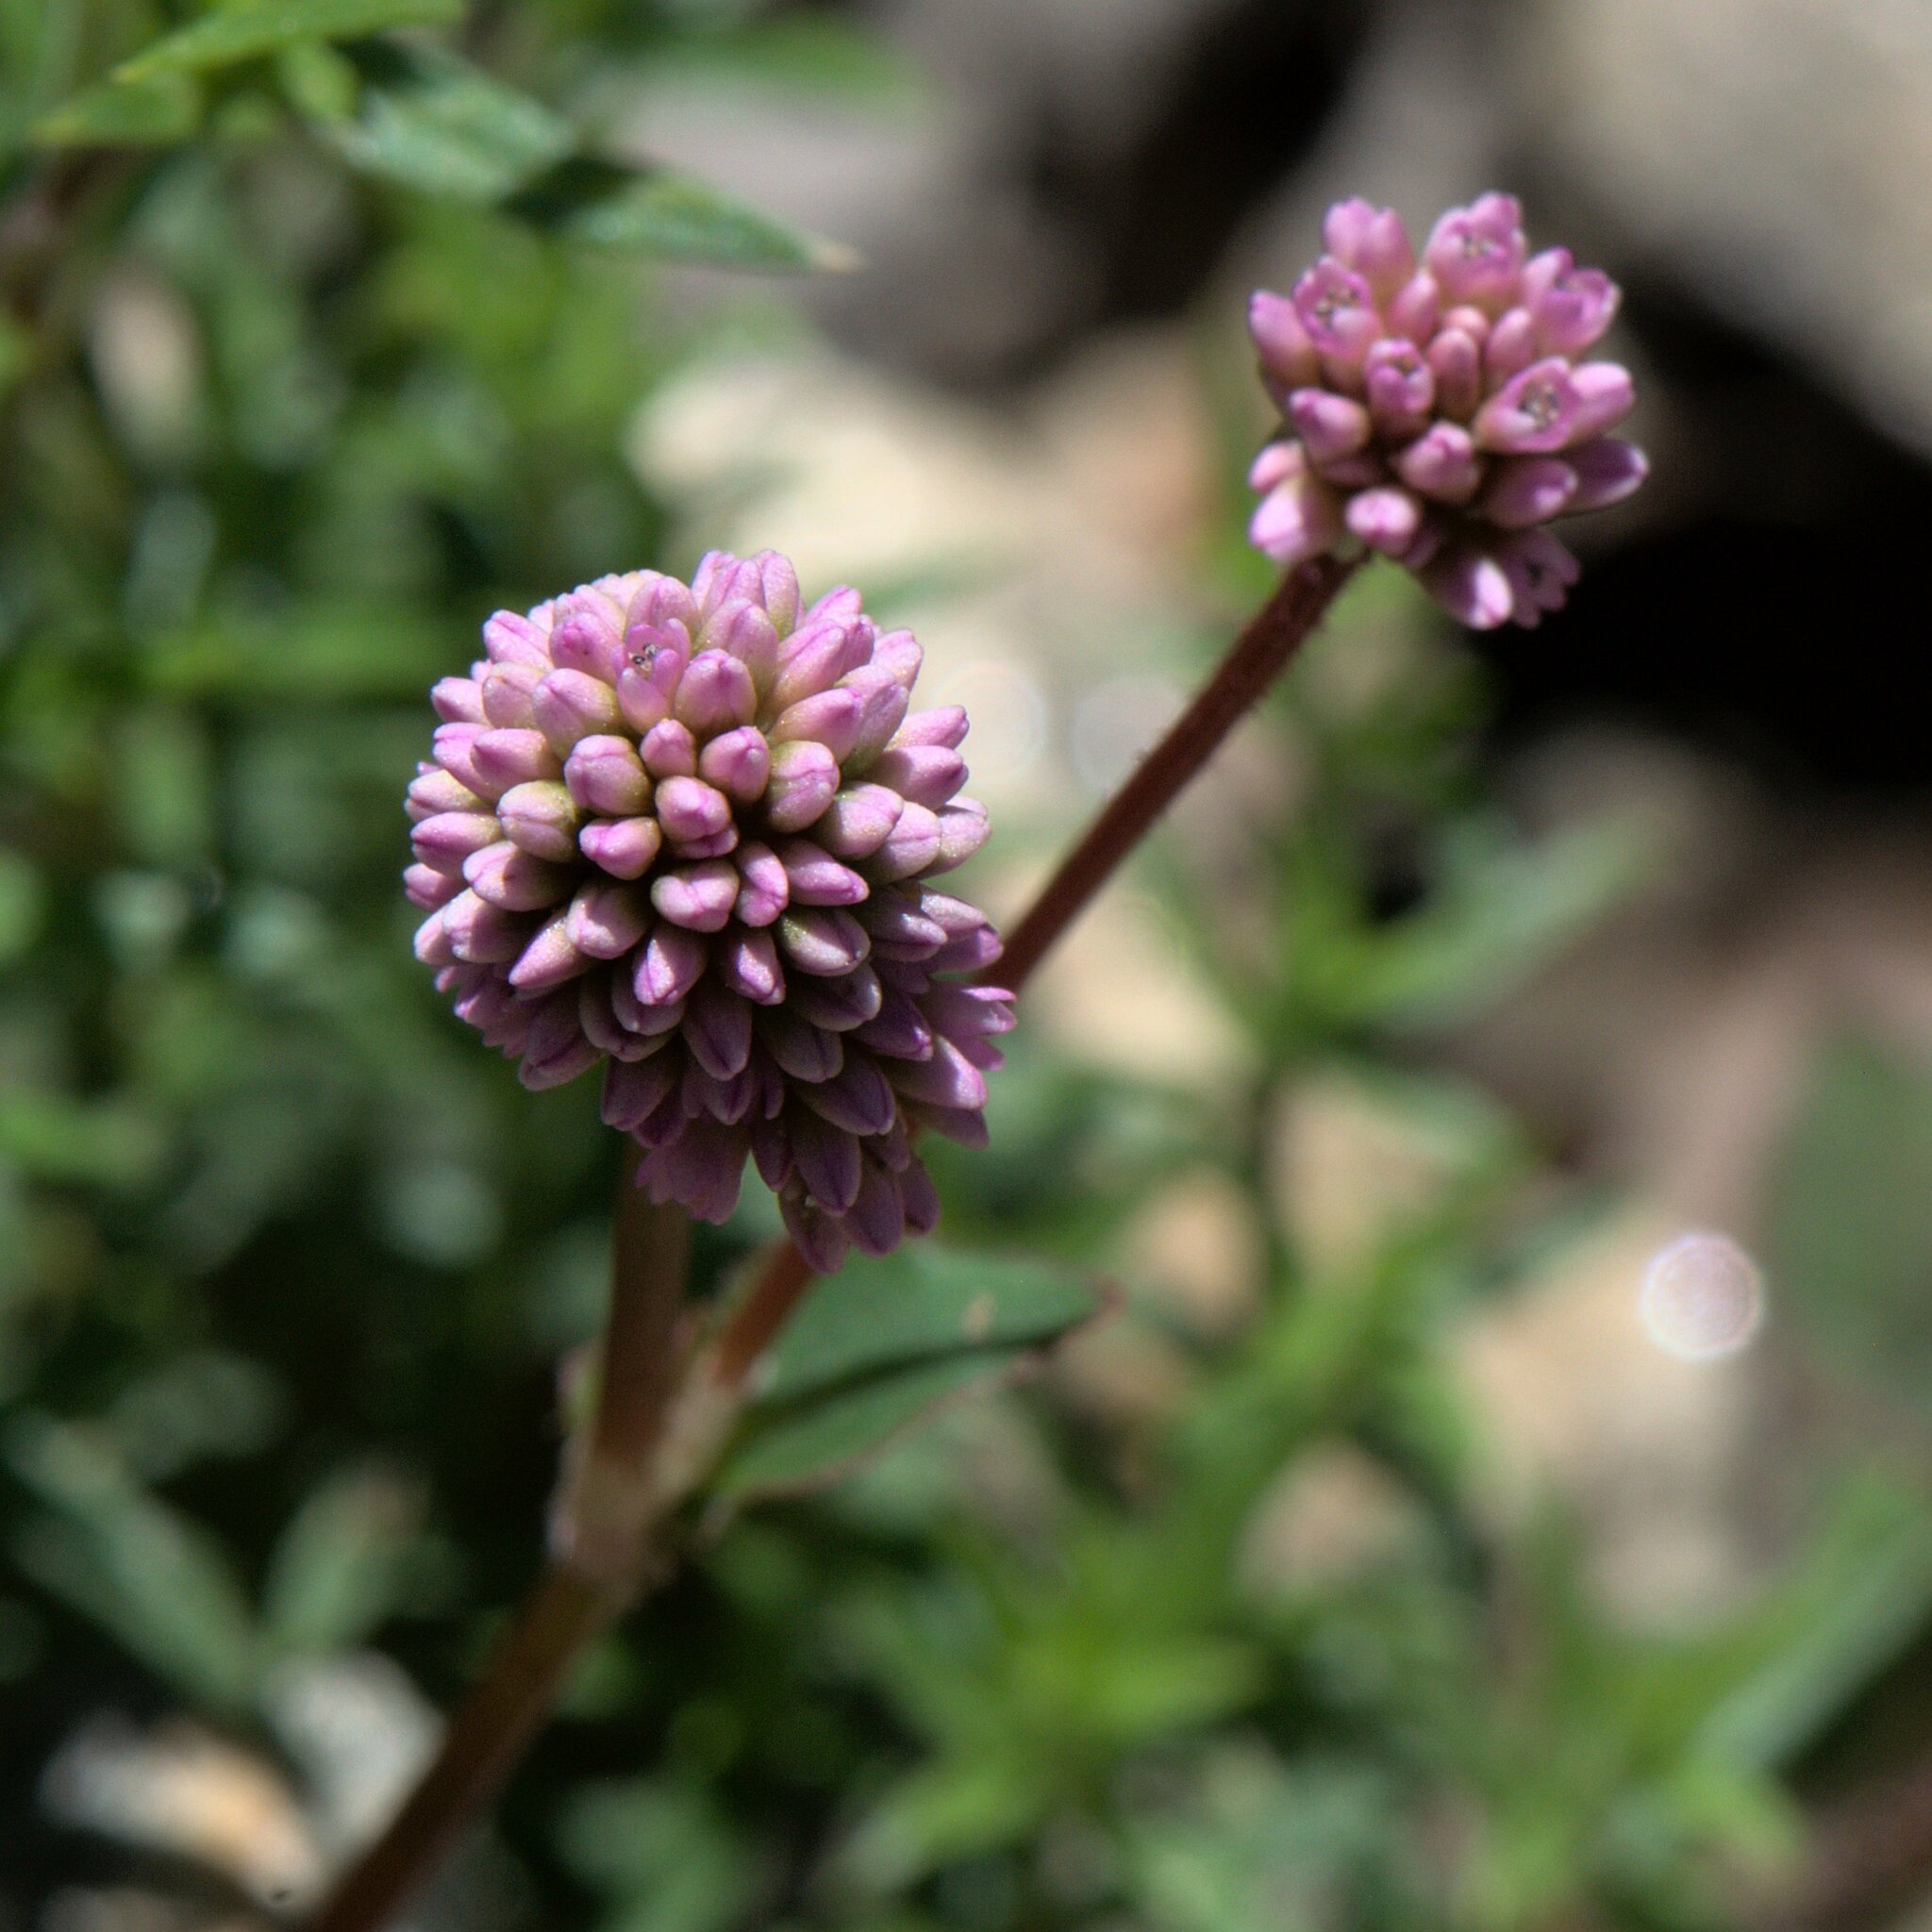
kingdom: Plantae
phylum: Tracheophyta
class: Magnoliopsida
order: Caryophyllales
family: Polygonaceae
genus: Persicaria
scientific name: Persicaria capitata
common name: Pinkhead smartweed
